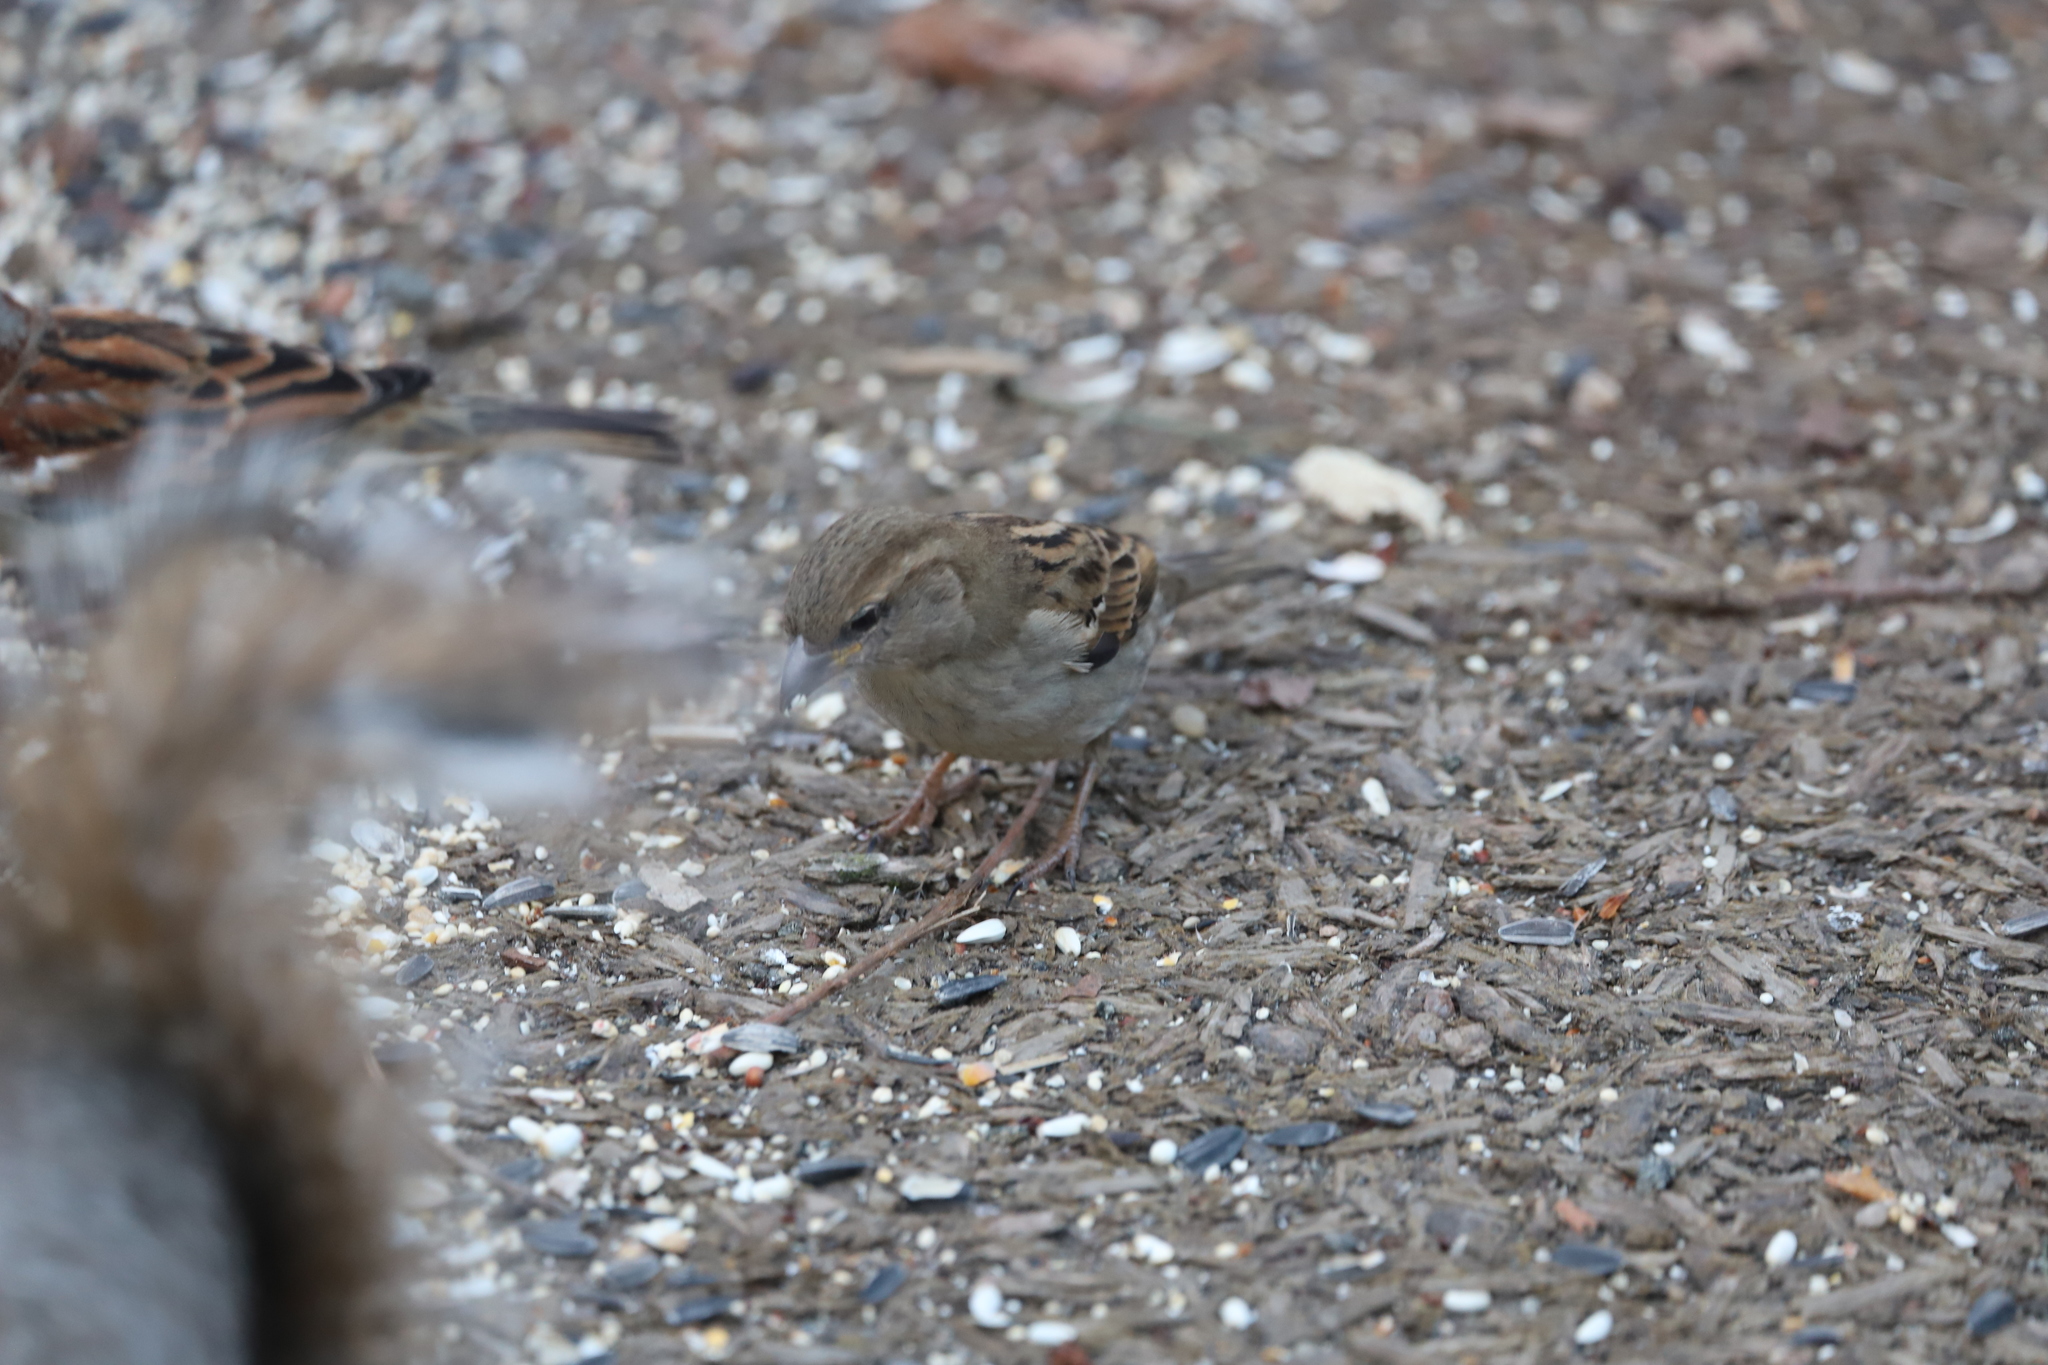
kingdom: Animalia
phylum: Chordata
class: Aves
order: Passeriformes
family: Passeridae
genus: Passer
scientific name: Passer domesticus
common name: House sparrow
